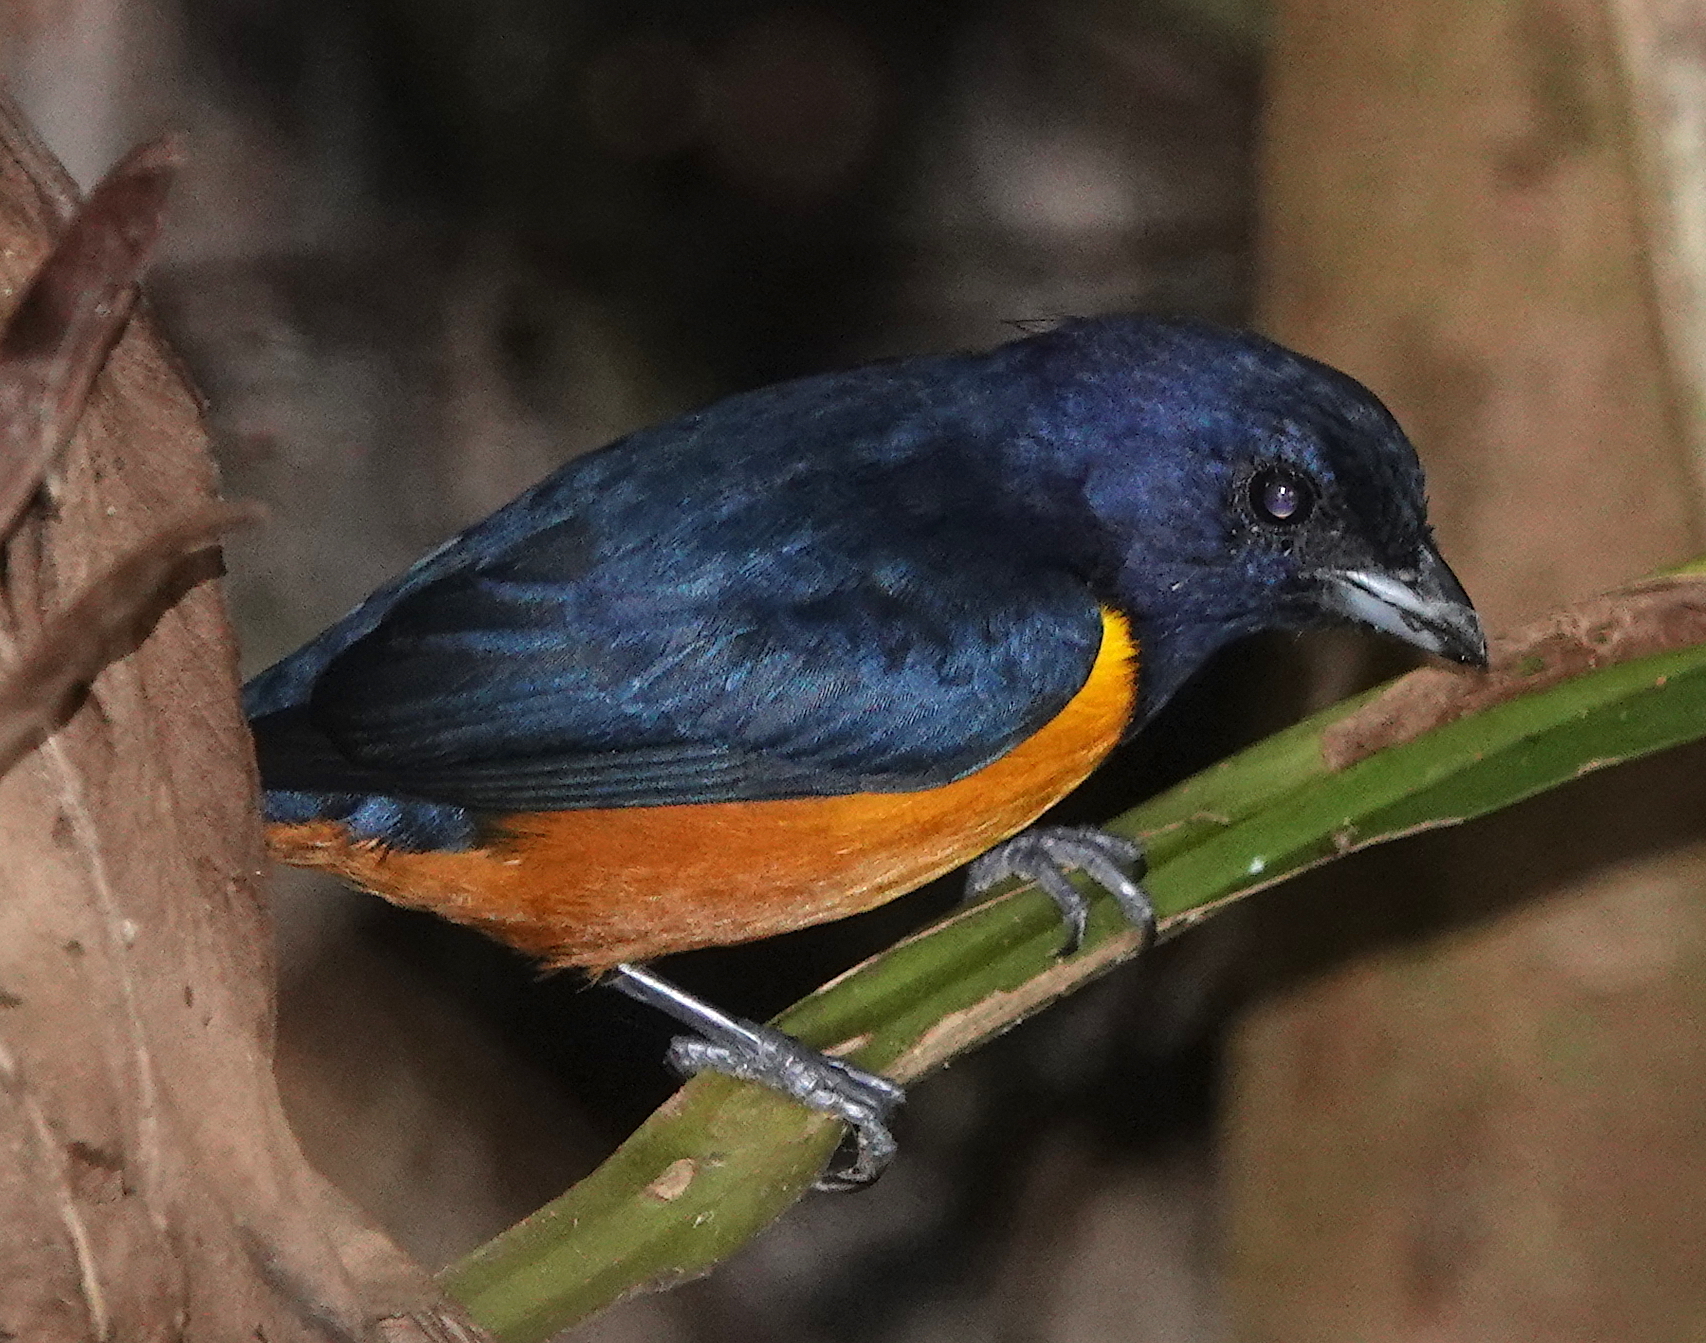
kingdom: Animalia
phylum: Chordata
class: Aves
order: Passeriformes
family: Fringillidae
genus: Euphonia
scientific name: Euphonia rufiventris
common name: Rufous-bellied euphonia
